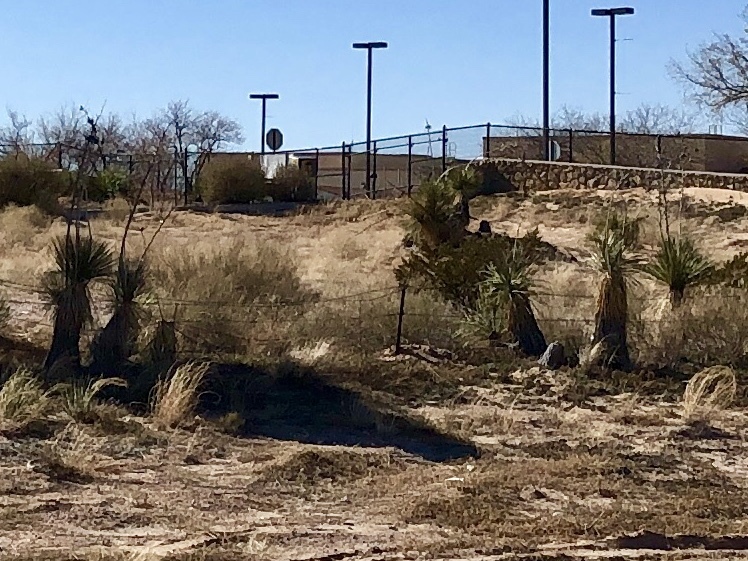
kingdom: Plantae
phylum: Tracheophyta
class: Liliopsida
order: Asparagales
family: Asparagaceae
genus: Yucca
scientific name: Yucca elata
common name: Palmella
